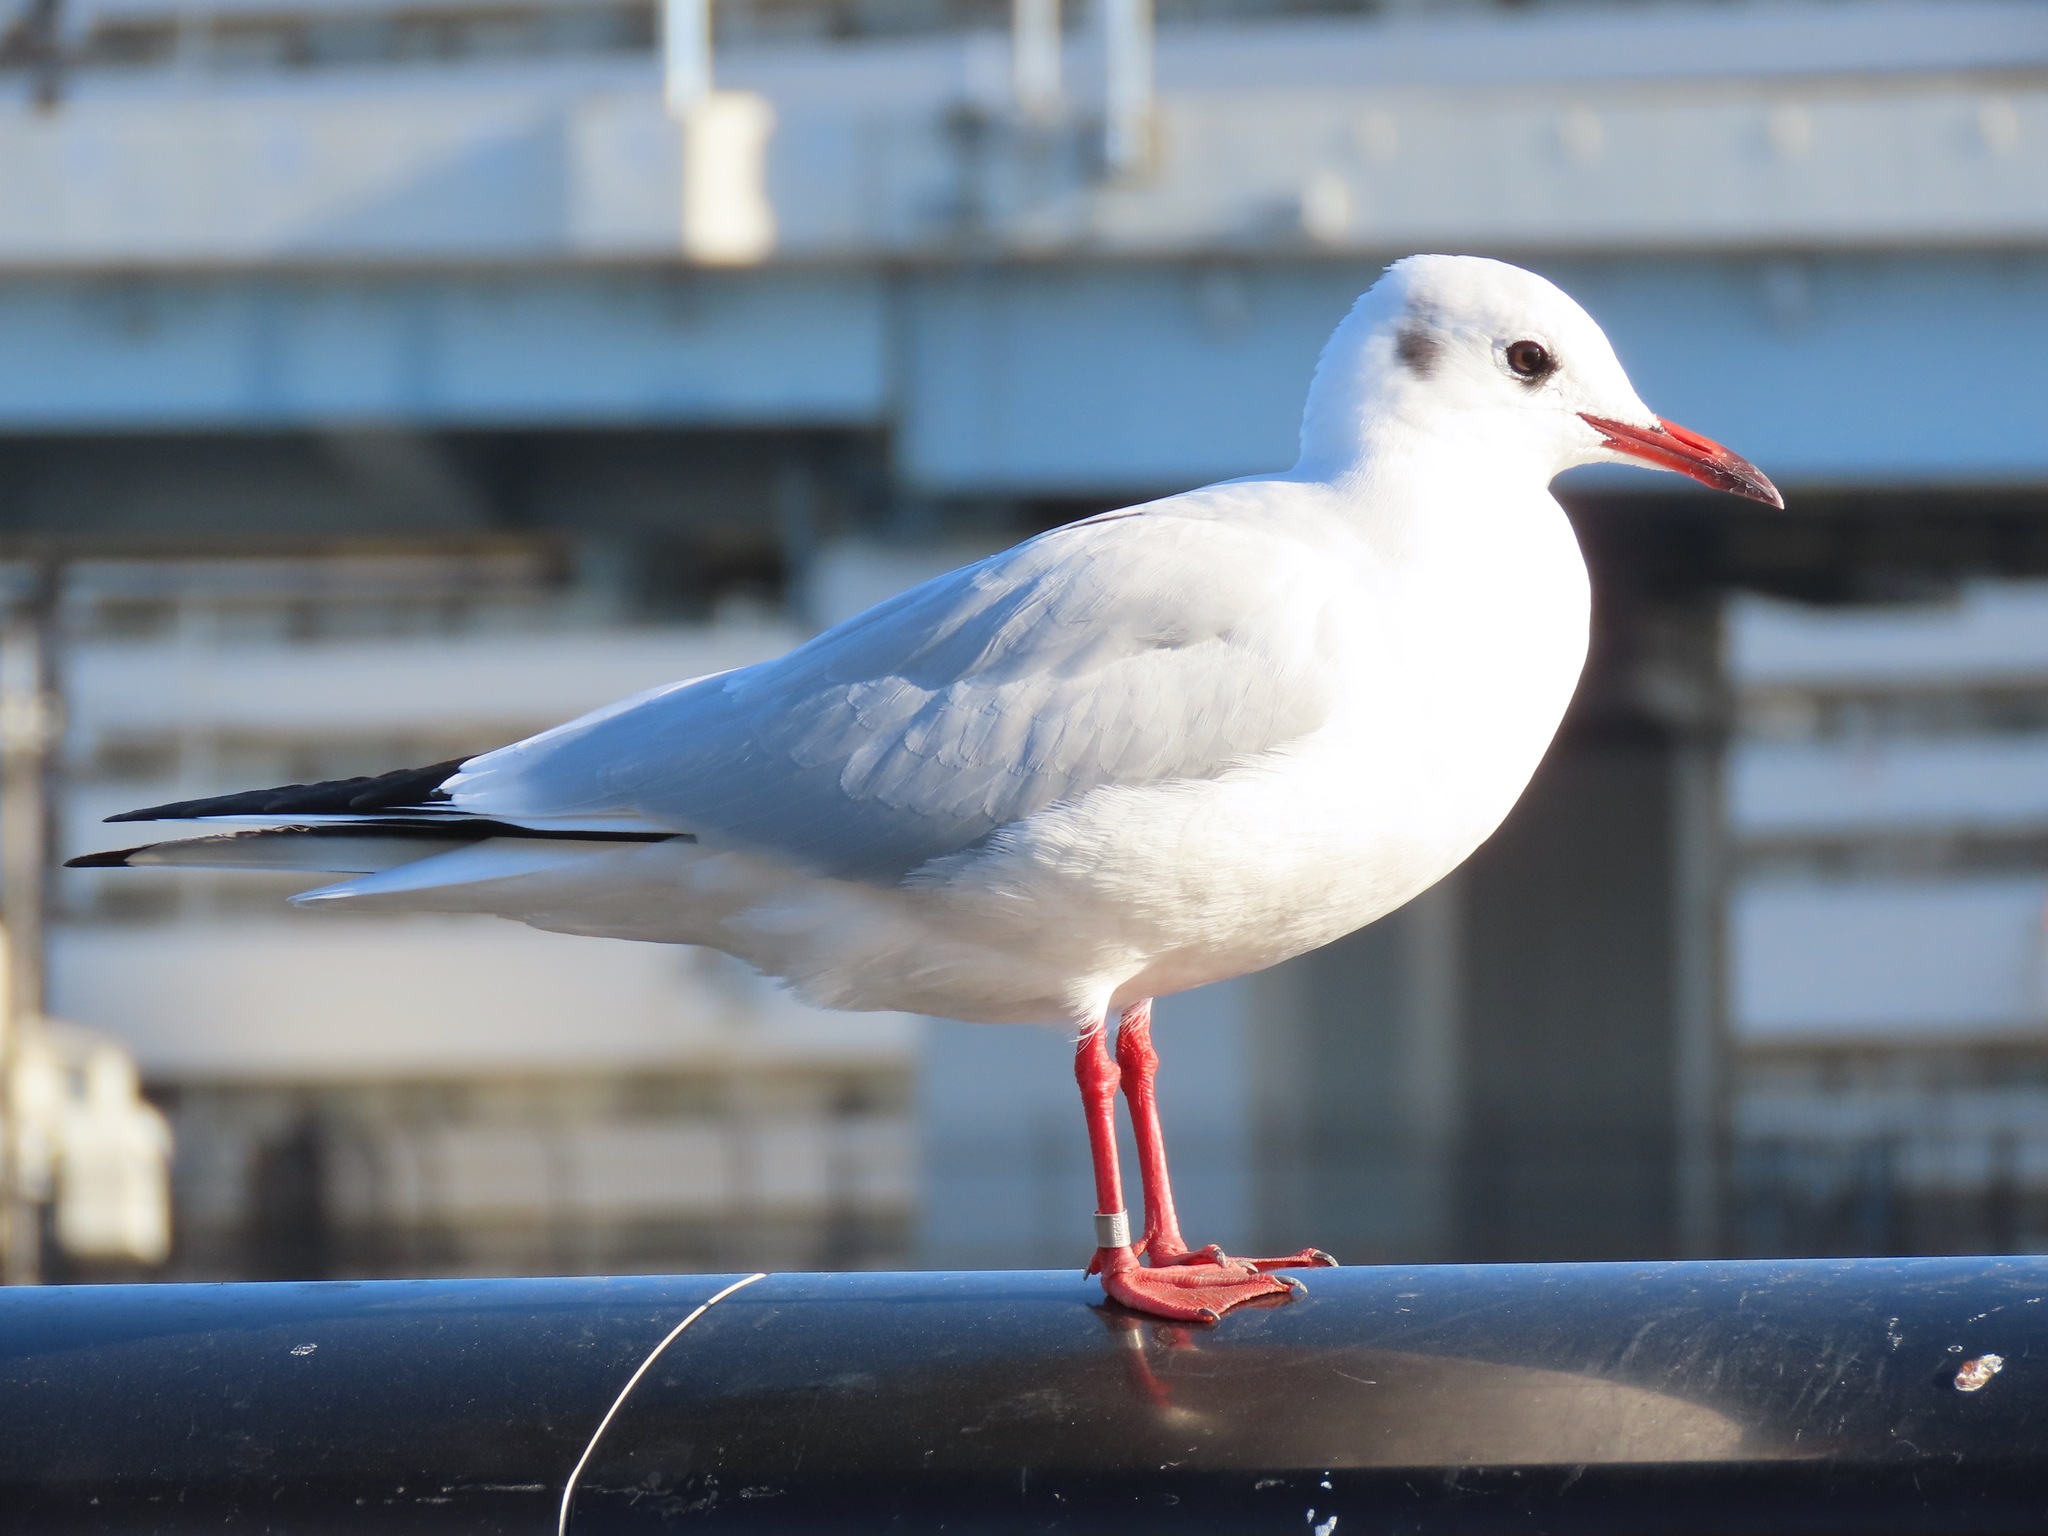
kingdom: Animalia
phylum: Chordata
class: Aves
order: Charadriiformes
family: Laridae
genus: Chroicocephalus
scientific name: Chroicocephalus ridibundus
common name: Black-headed gull
